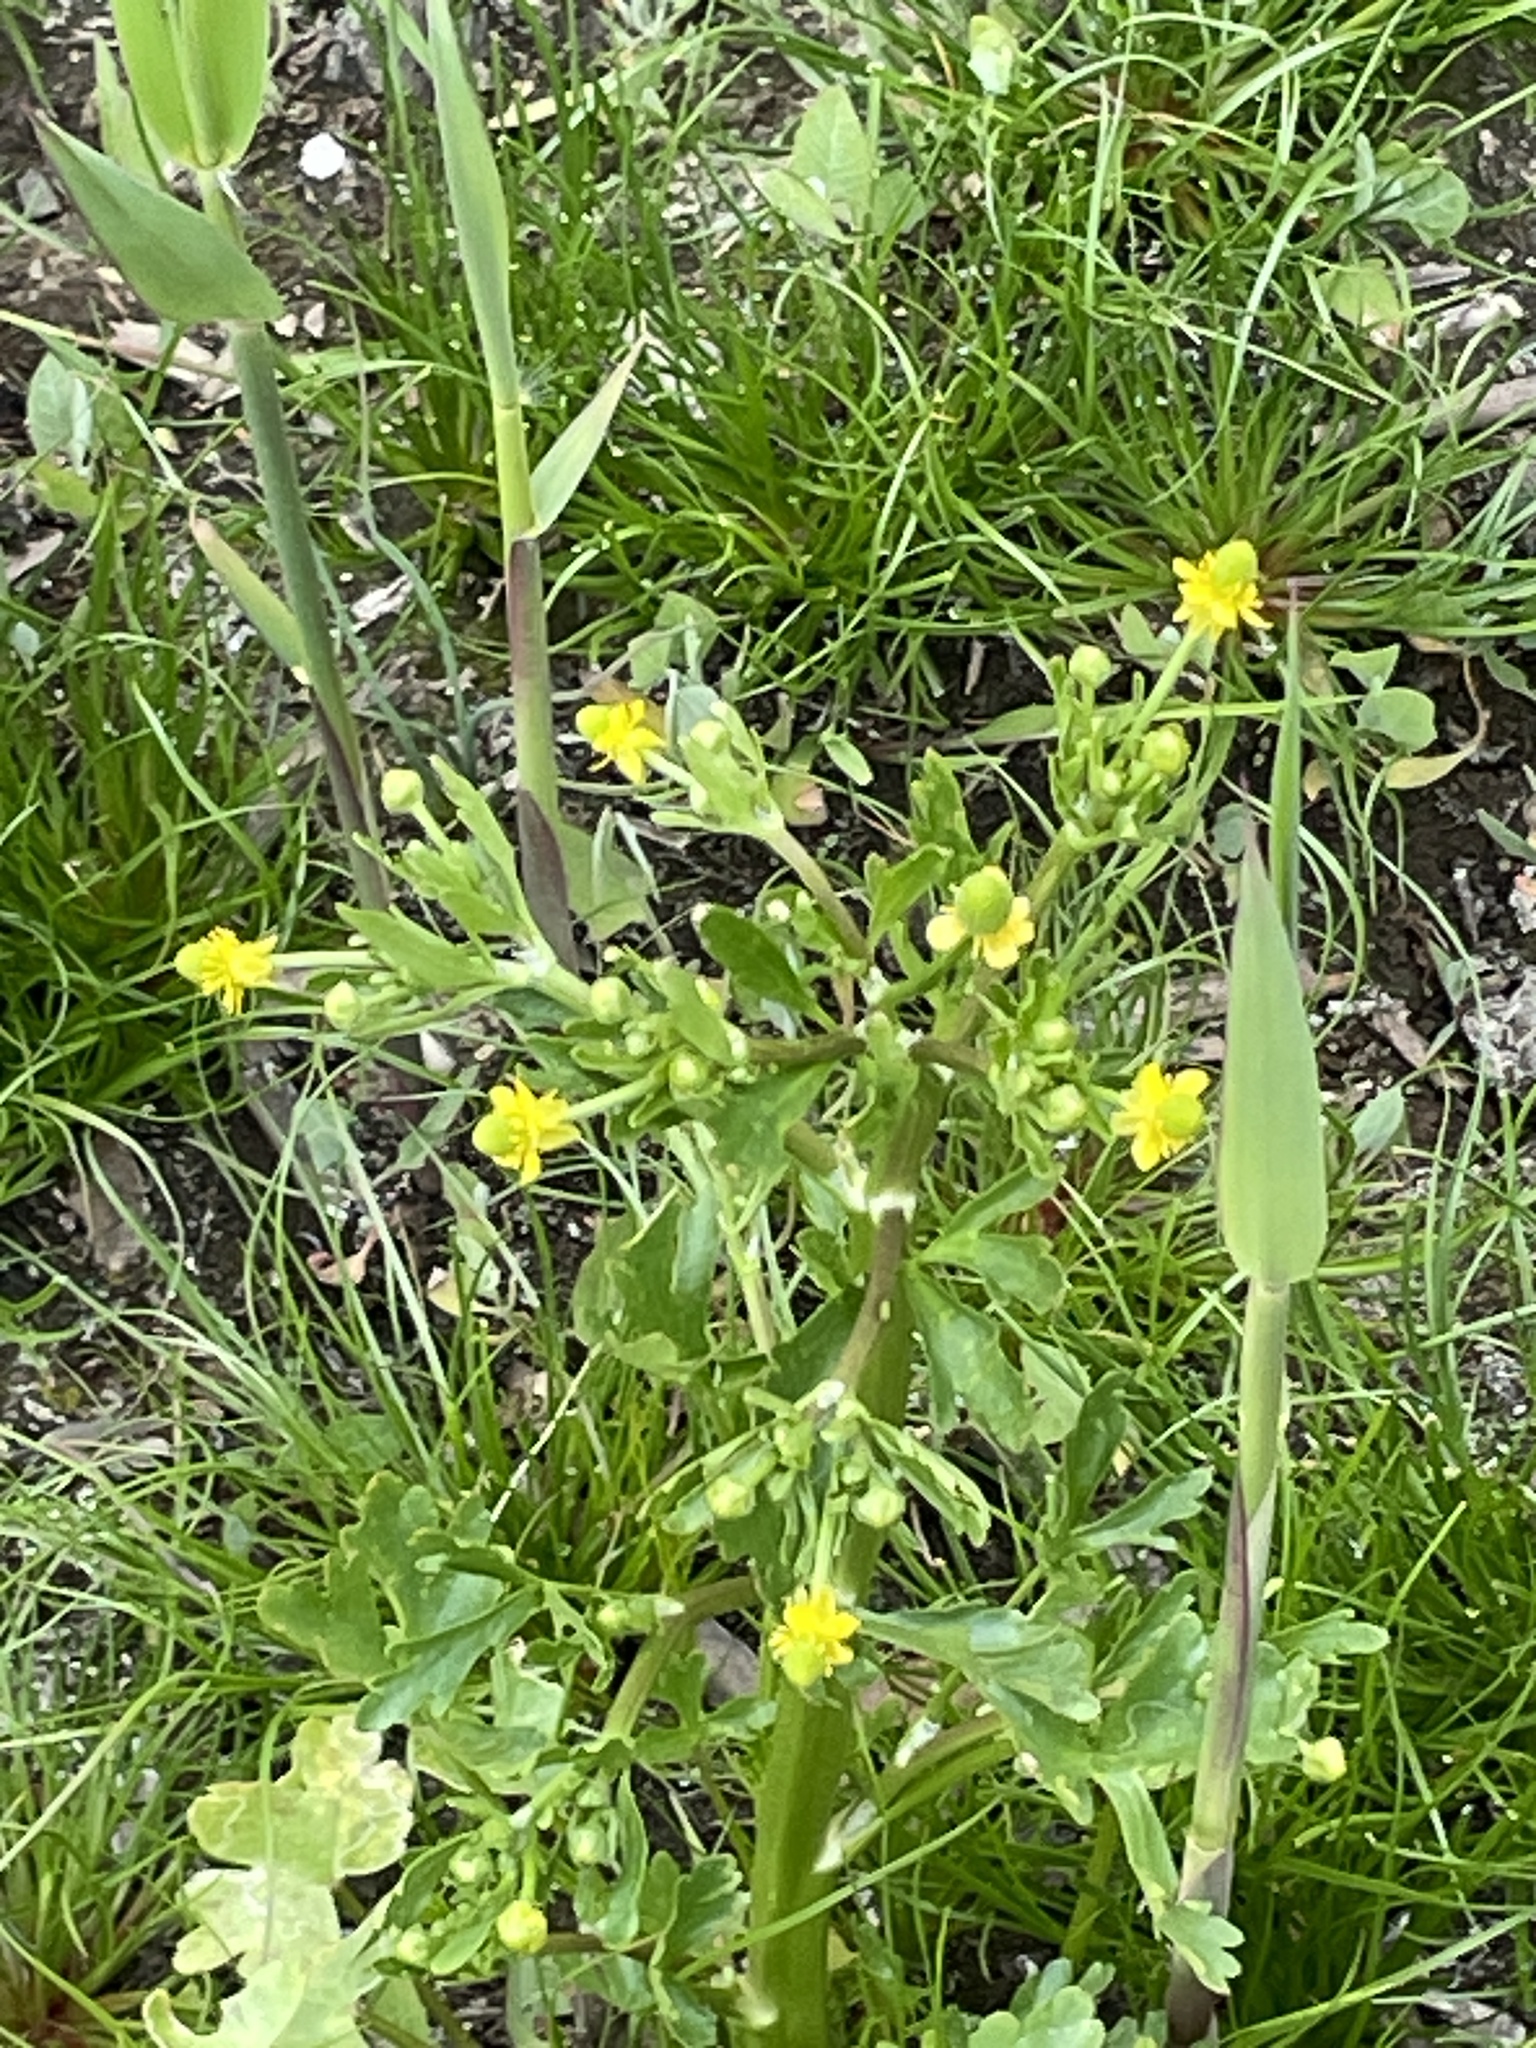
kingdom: Plantae
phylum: Tracheophyta
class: Magnoliopsida
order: Ranunculales
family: Ranunculaceae
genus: Ranunculus
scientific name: Ranunculus sceleratus
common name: Celery-leaved buttercup
